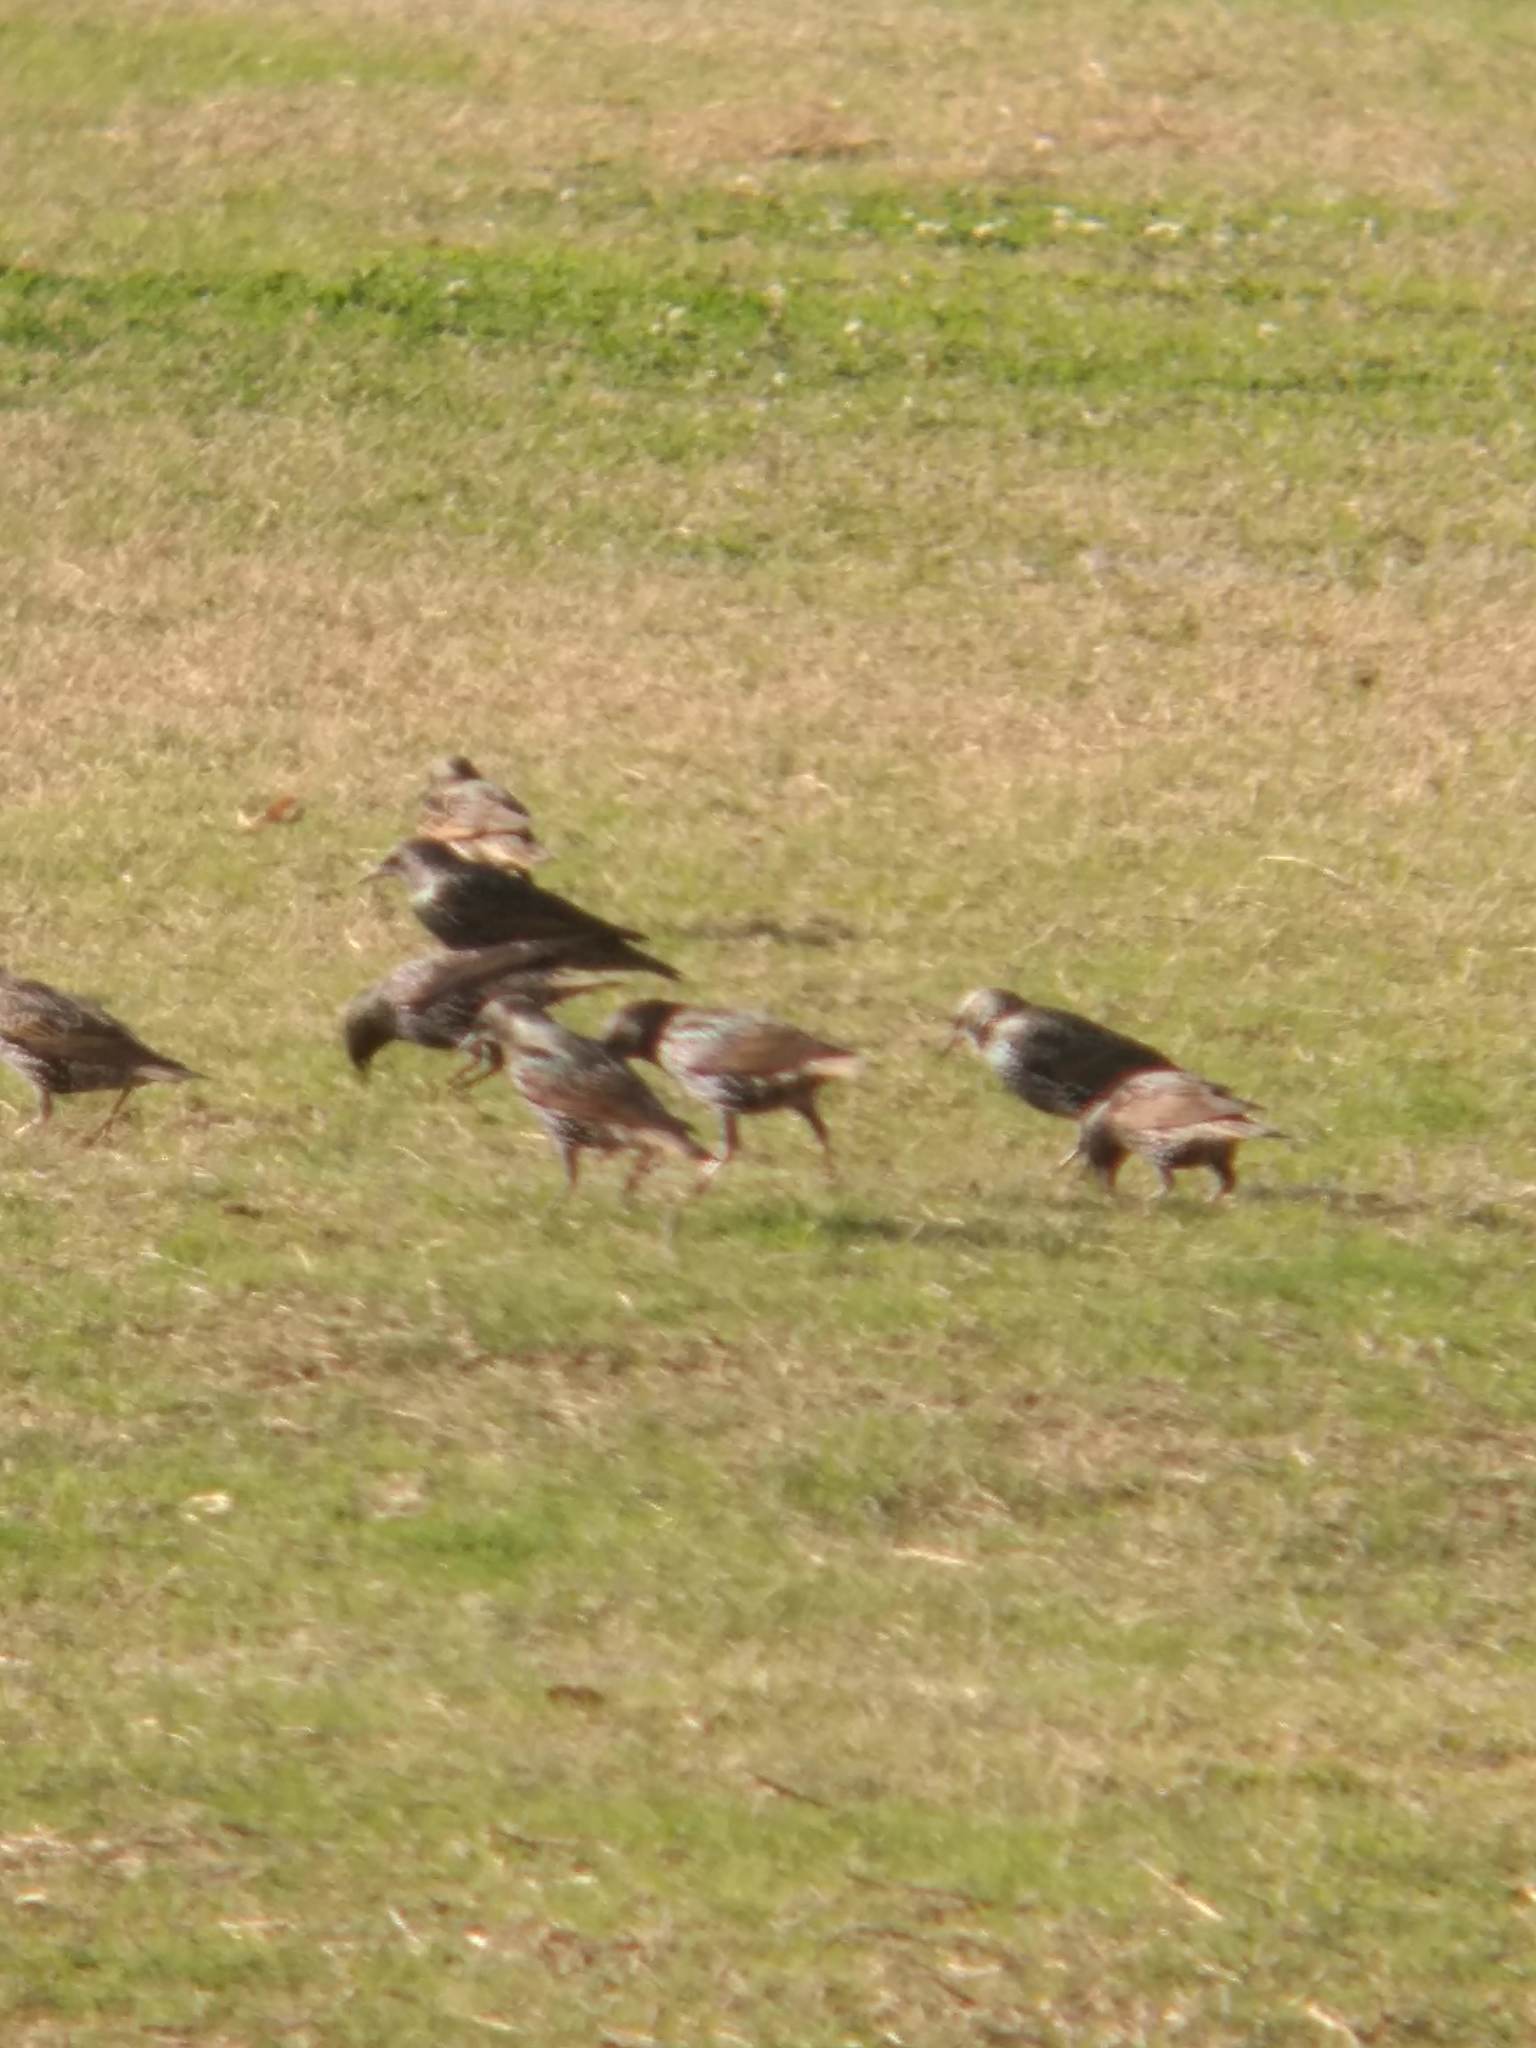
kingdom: Animalia
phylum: Chordata
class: Aves
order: Passeriformes
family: Sturnidae
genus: Sturnus
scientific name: Sturnus vulgaris
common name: Common starling
